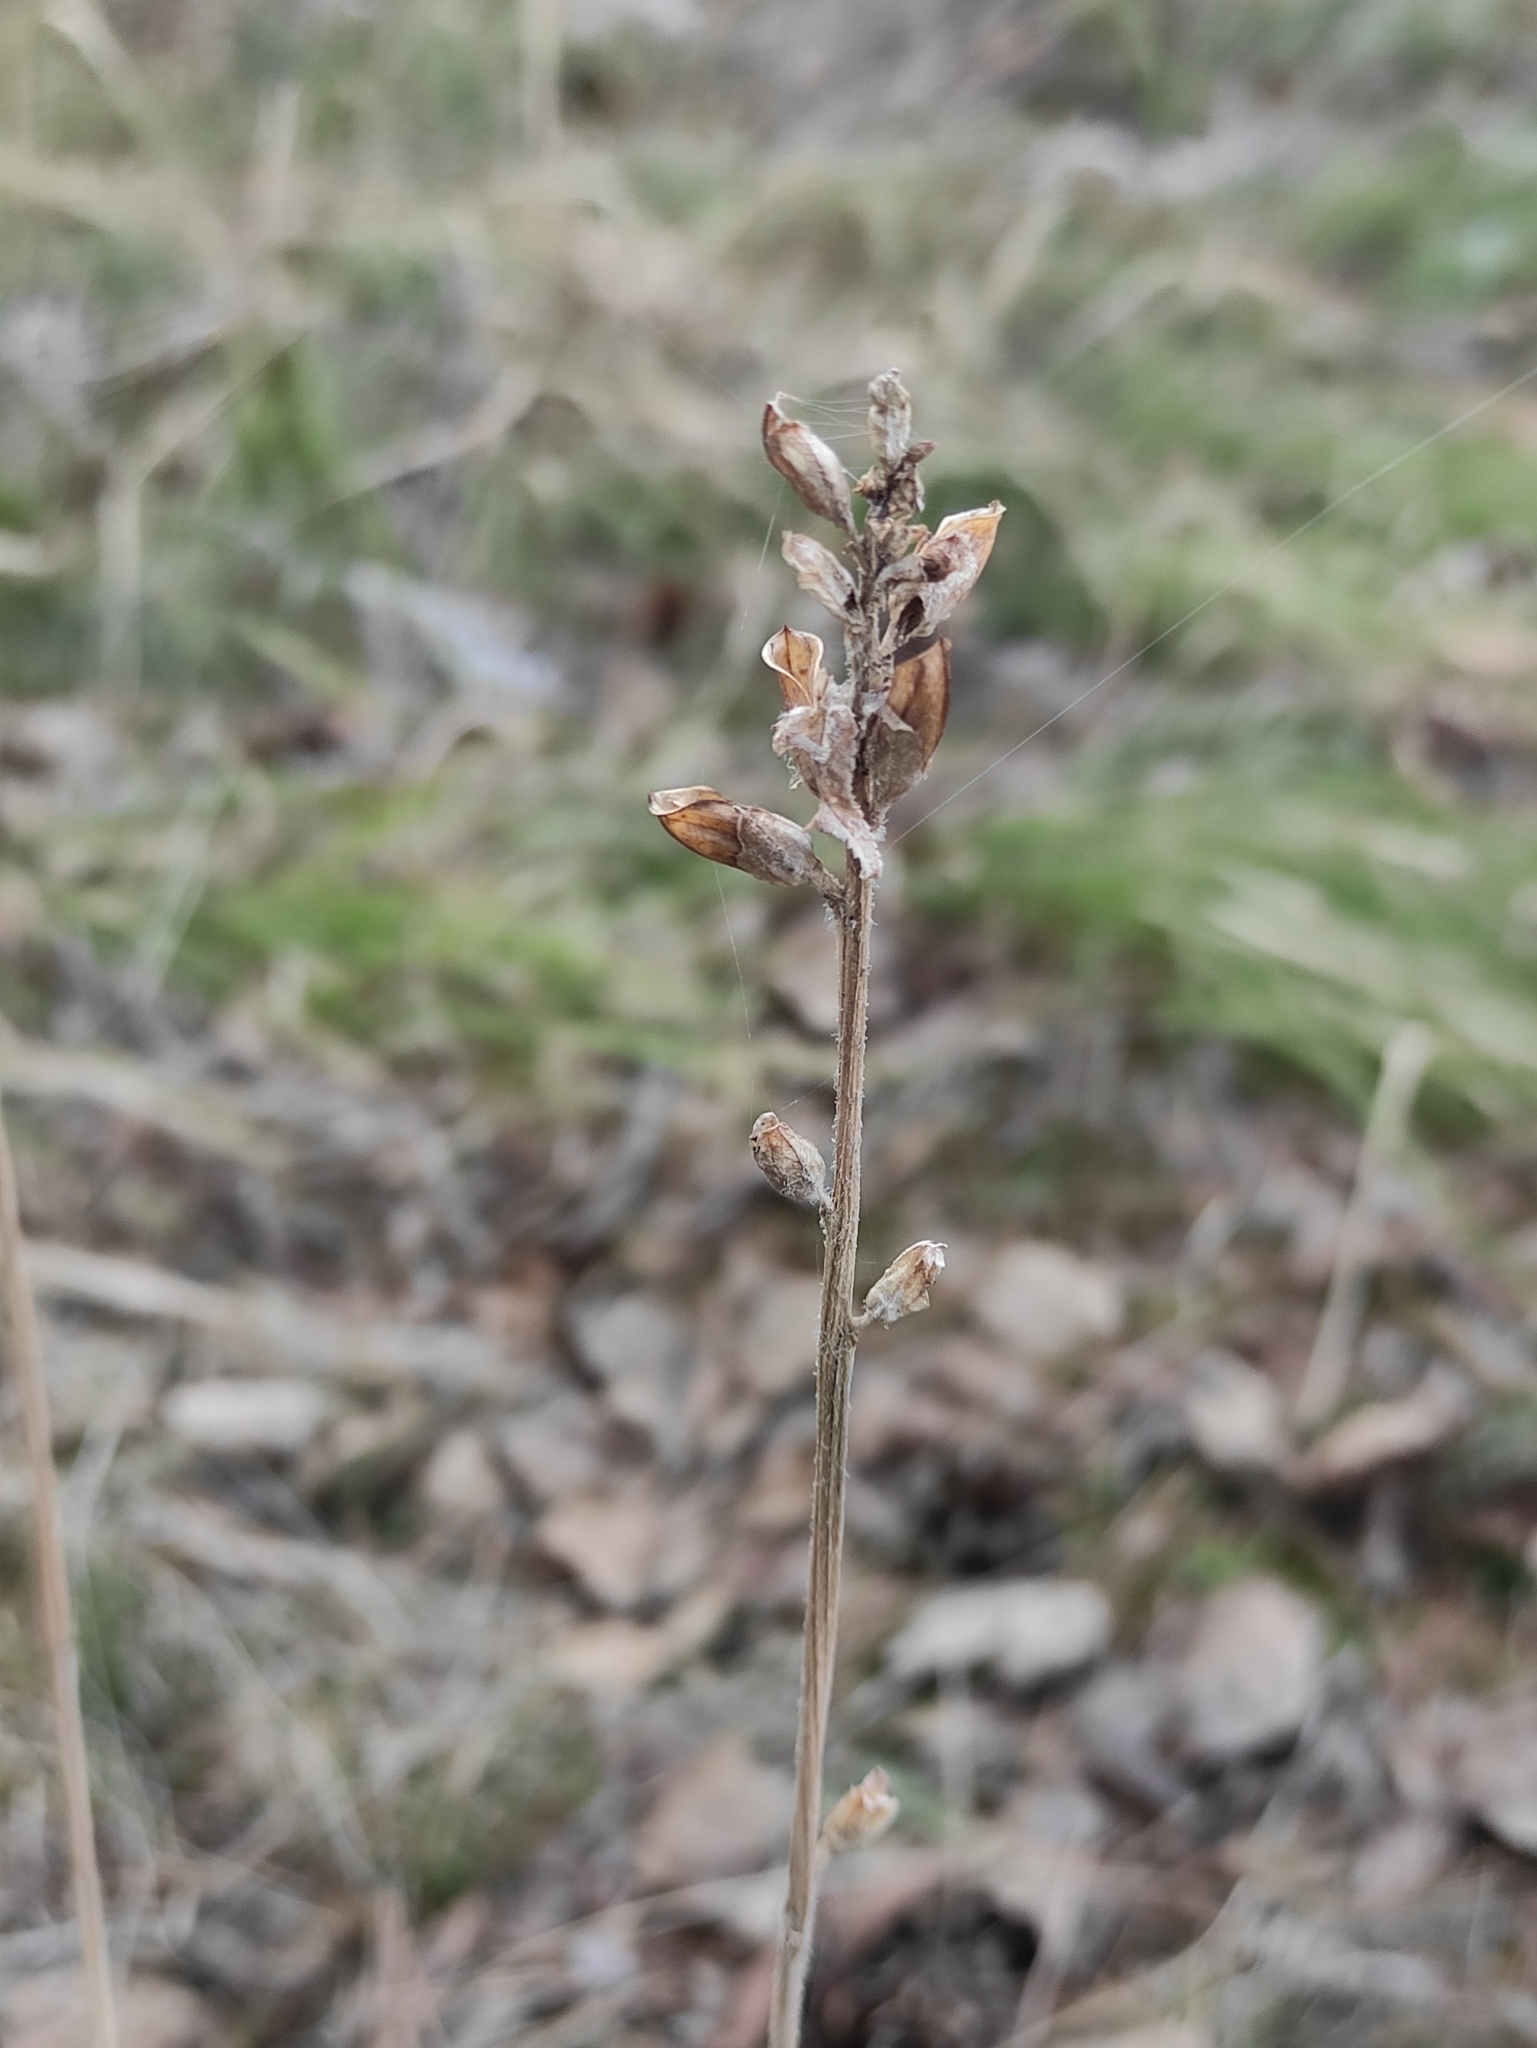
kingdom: Plantae
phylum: Tracheophyta
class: Magnoliopsida
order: Lamiales
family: Orobanchaceae
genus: Pedicularis
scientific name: Pedicularis labradorica
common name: Labrador lousewort
